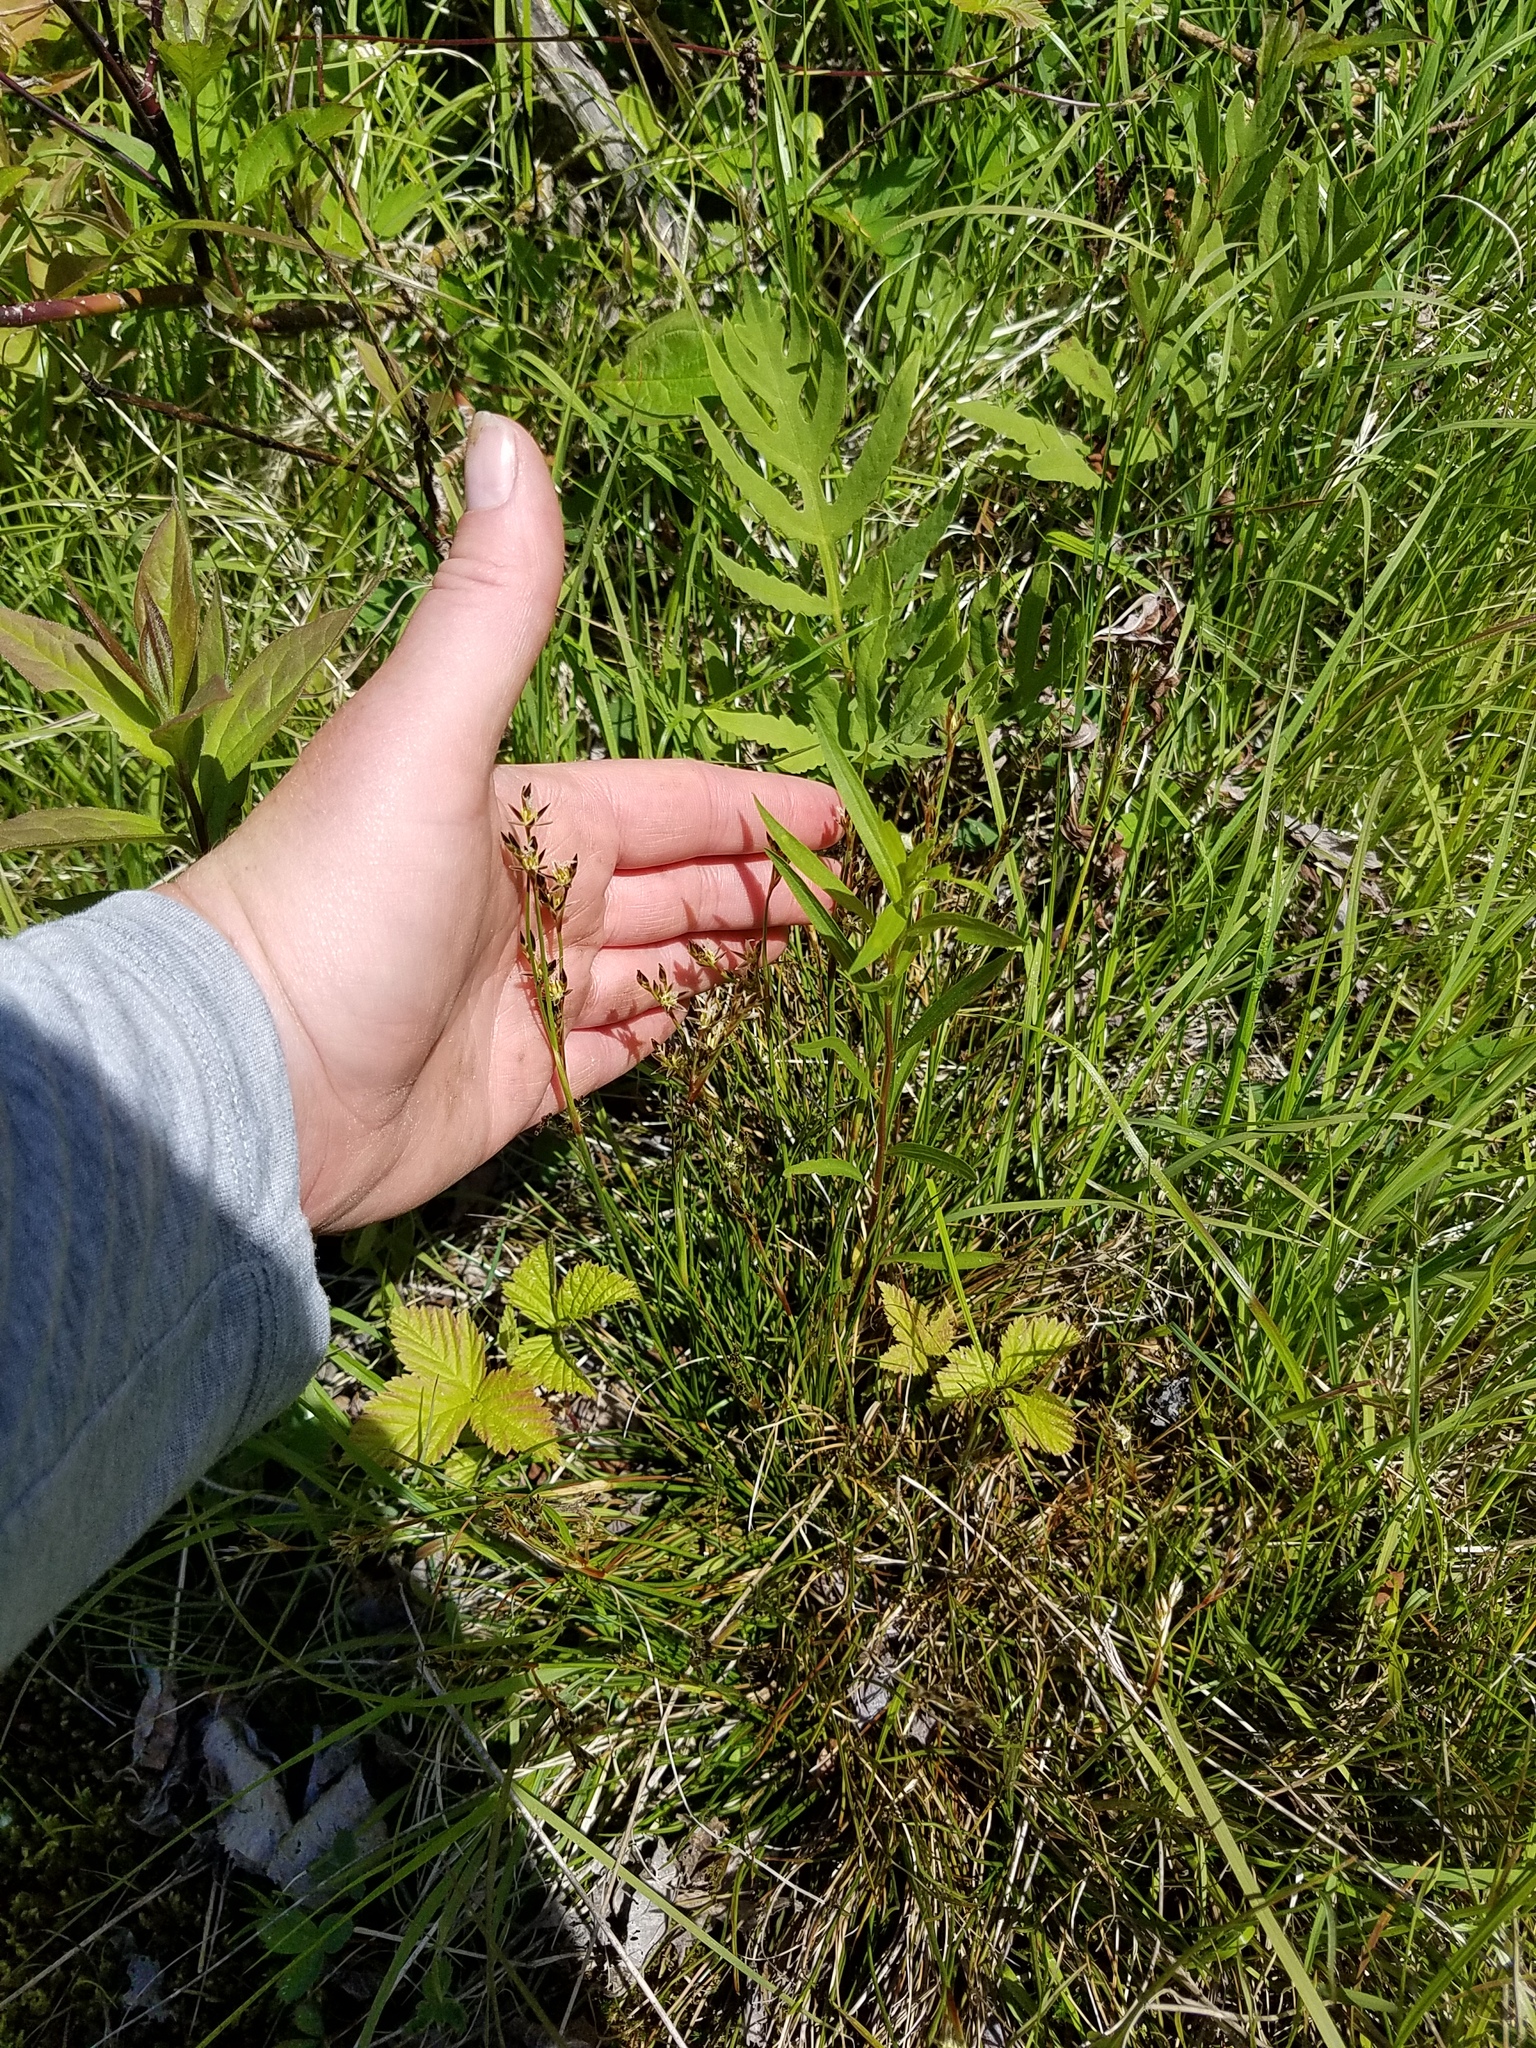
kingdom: Plantae
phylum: Tracheophyta
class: Liliopsida
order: Poales
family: Juncaceae
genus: Juncus
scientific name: Juncus squarrosus
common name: Heath rush
